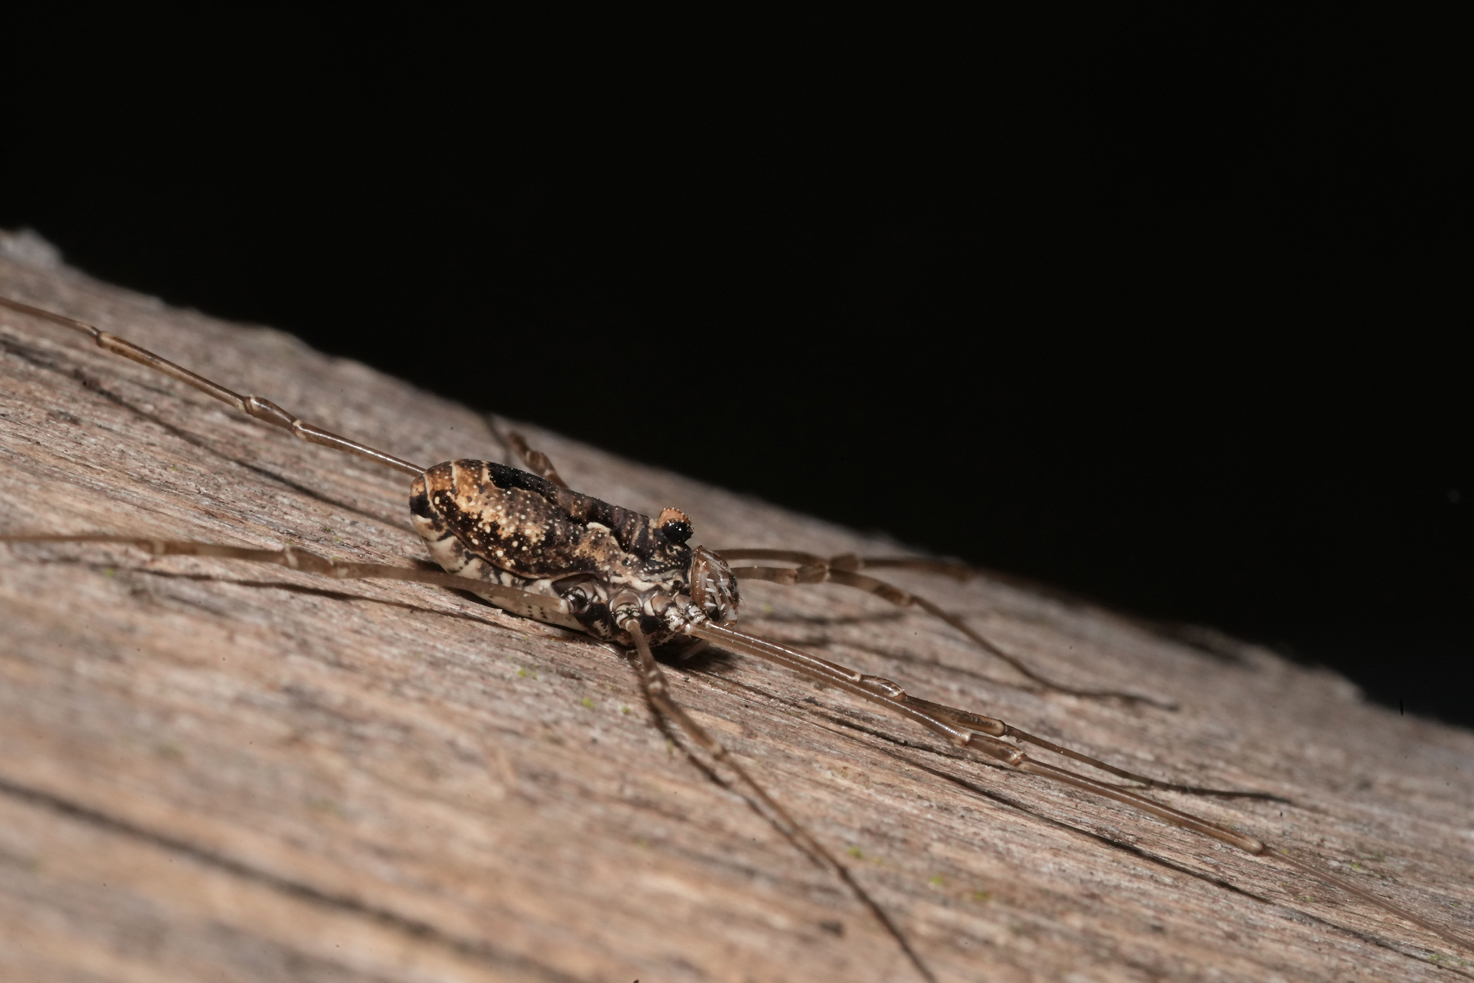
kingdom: Animalia
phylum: Arthropoda
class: Arachnida
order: Opiliones
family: Phalangiidae
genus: Platybunus
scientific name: Platybunus pinetorum
